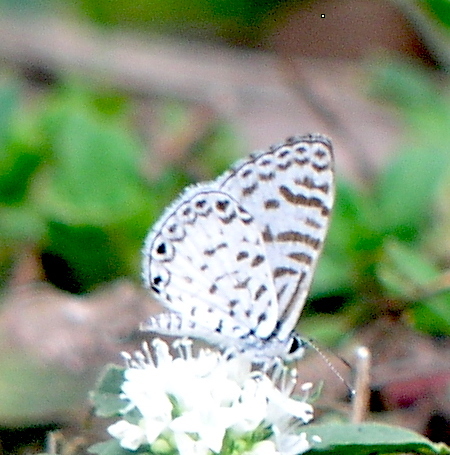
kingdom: Animalia
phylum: Arthropoda
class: Insecta
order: Lepidoptera
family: Lycaenidae
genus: Leptotes
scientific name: Leptotes cassius
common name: Cassius blue
